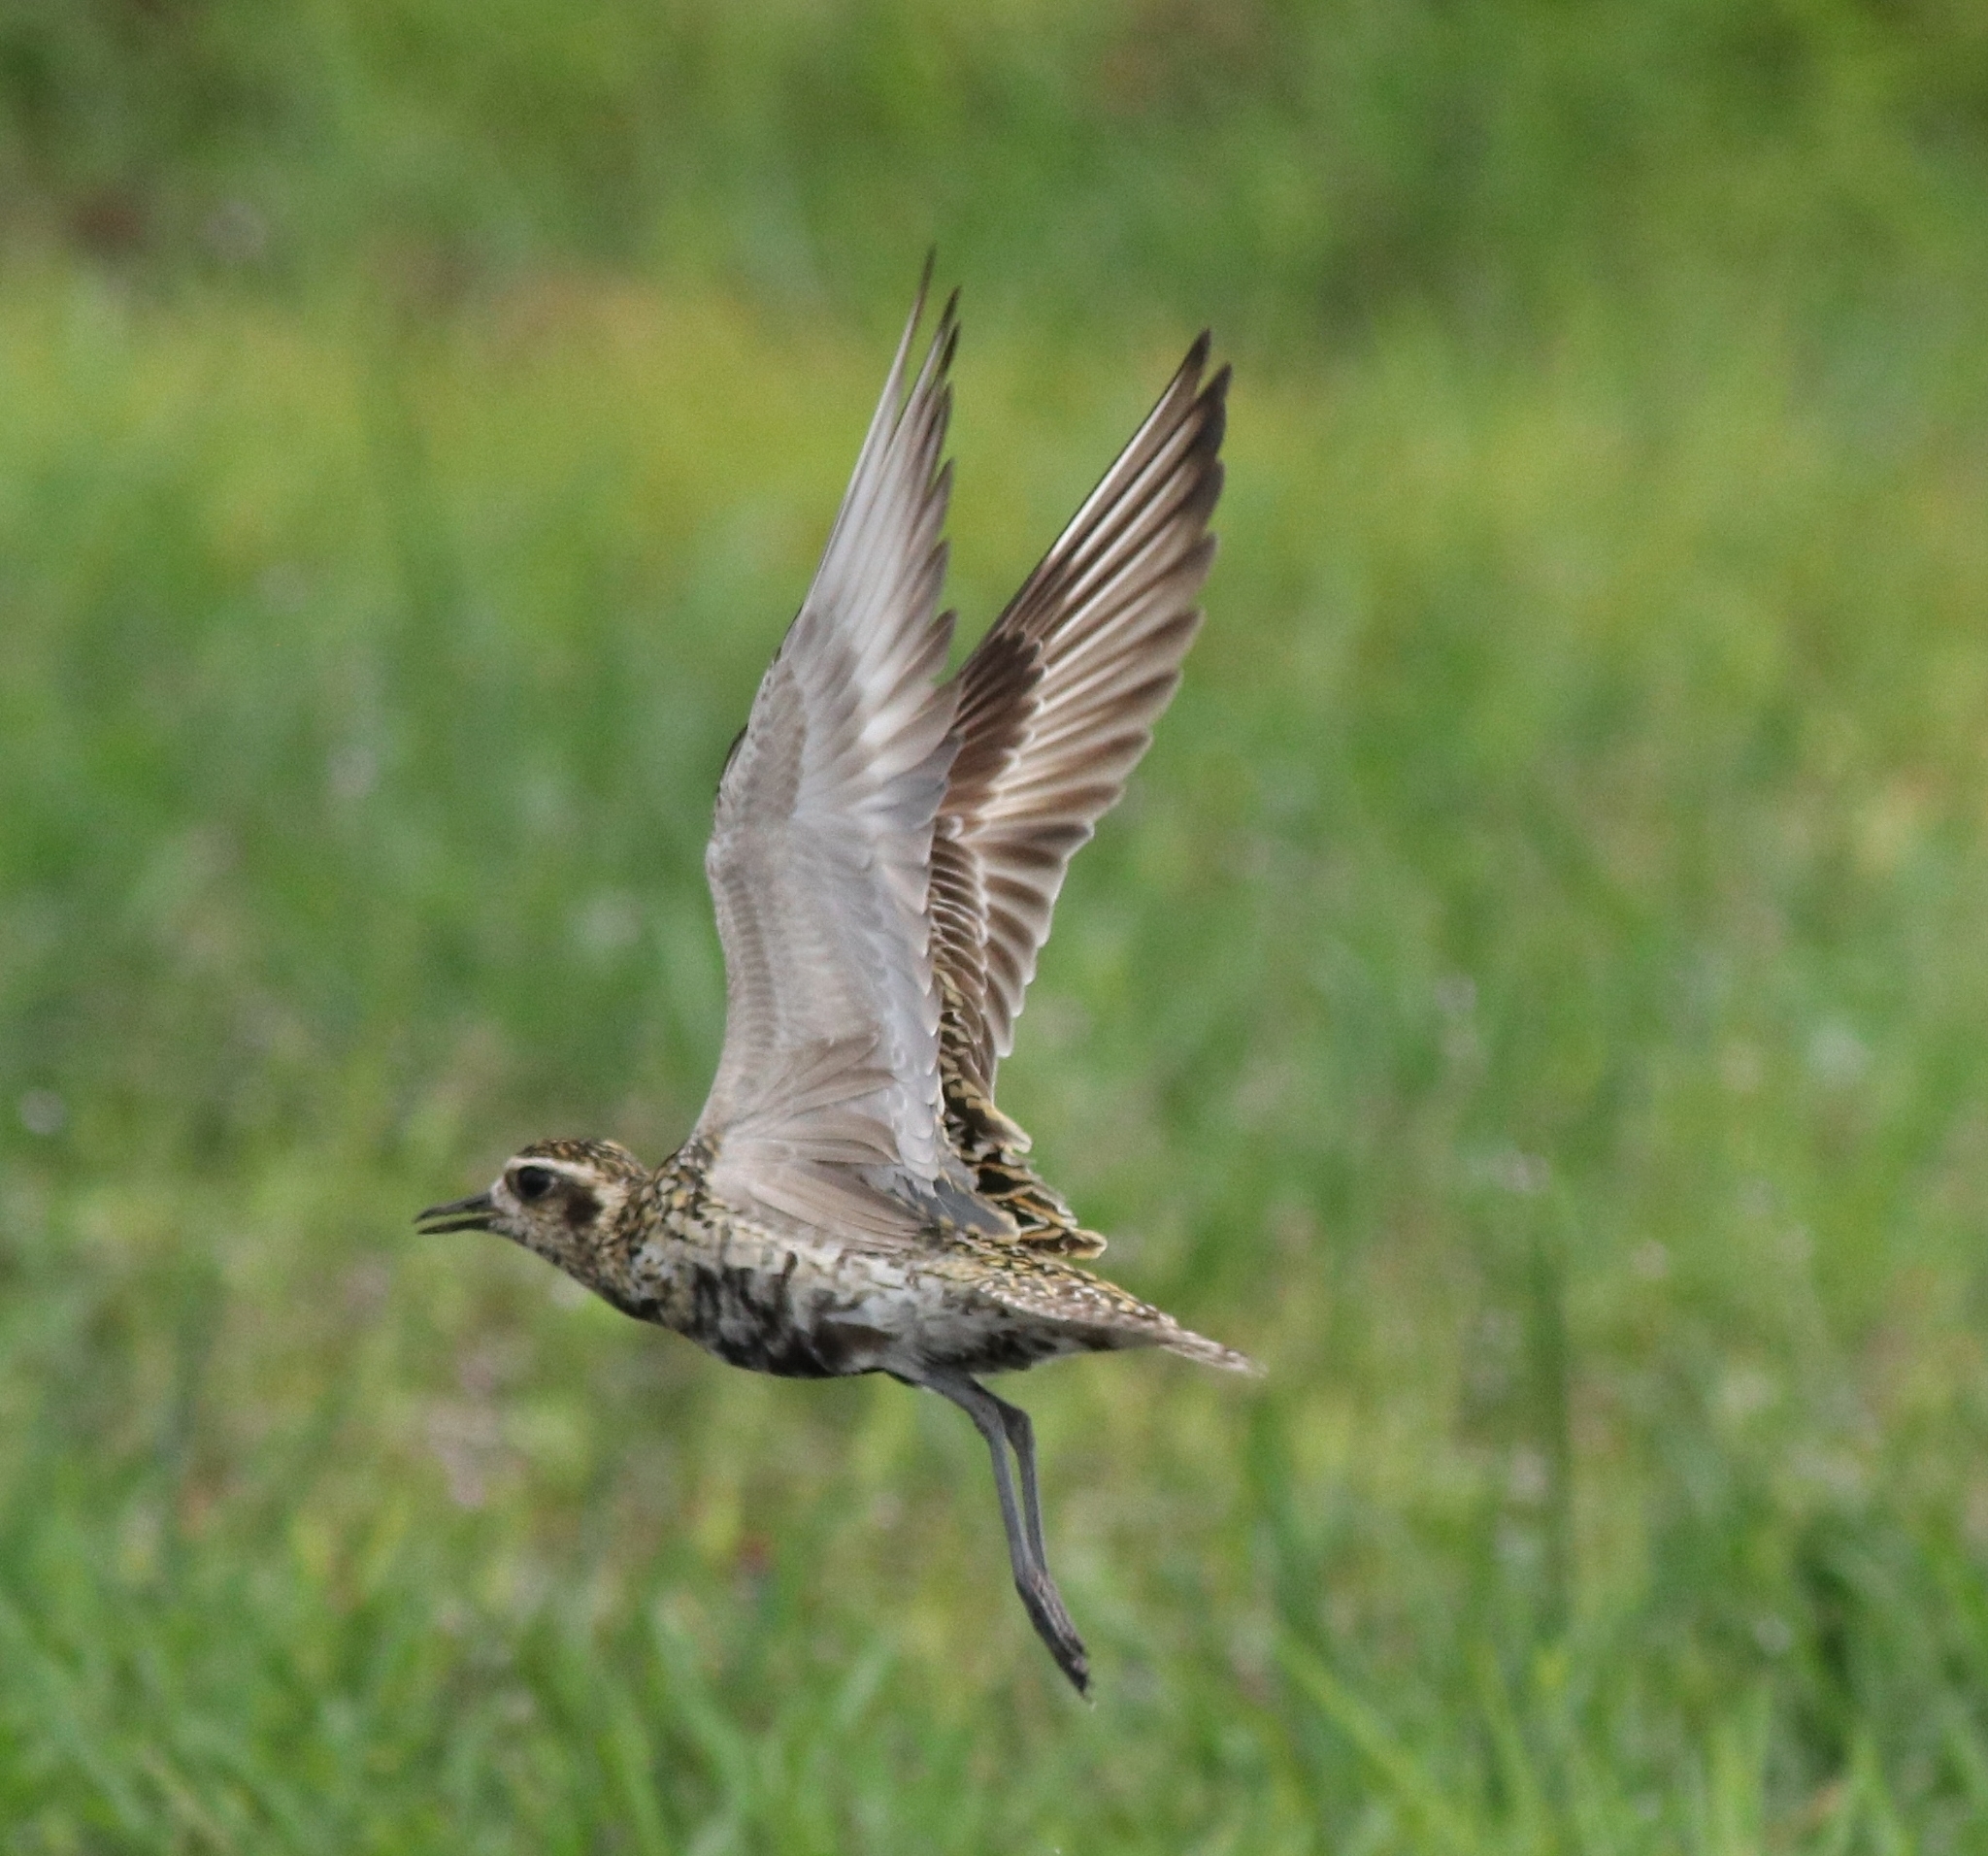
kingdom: Animalia
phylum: Chordata
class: Aves
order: Charadriiformes
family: Charadriidae
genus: Pluvialis
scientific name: Pluvialis fulva
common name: Pacific golden plover
